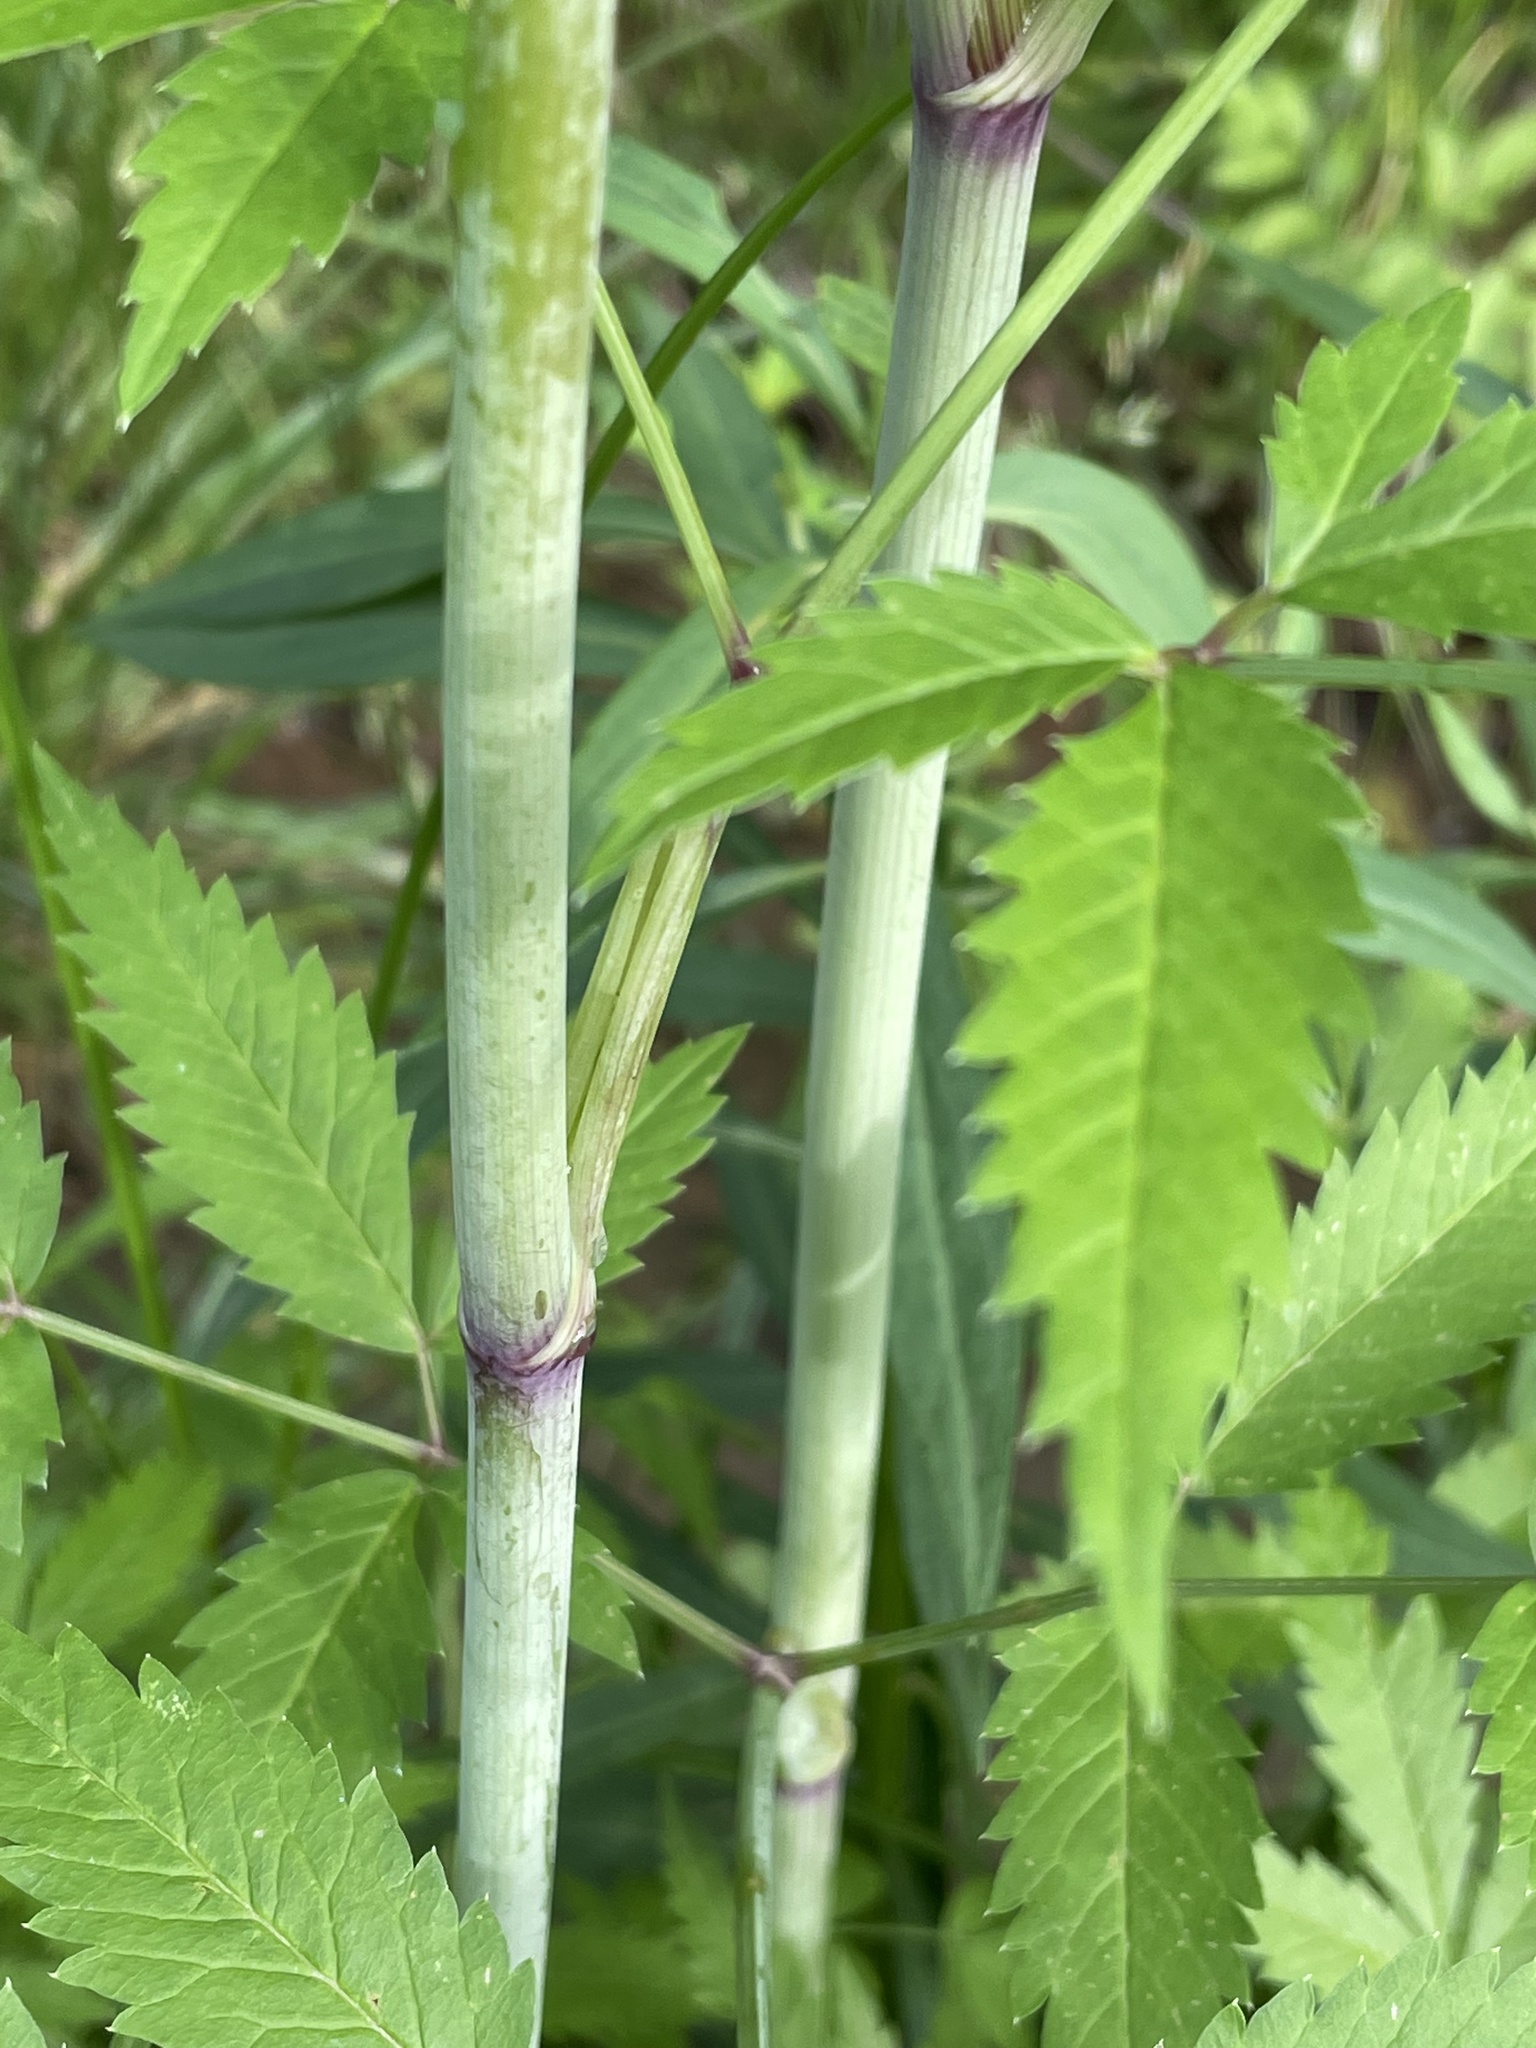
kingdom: Plantae
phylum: Tracheophyta
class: Magnoliopsida
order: Apiales
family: Apiaceae
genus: Cicuta
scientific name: Cicuta maculata
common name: Spotted cowbane
